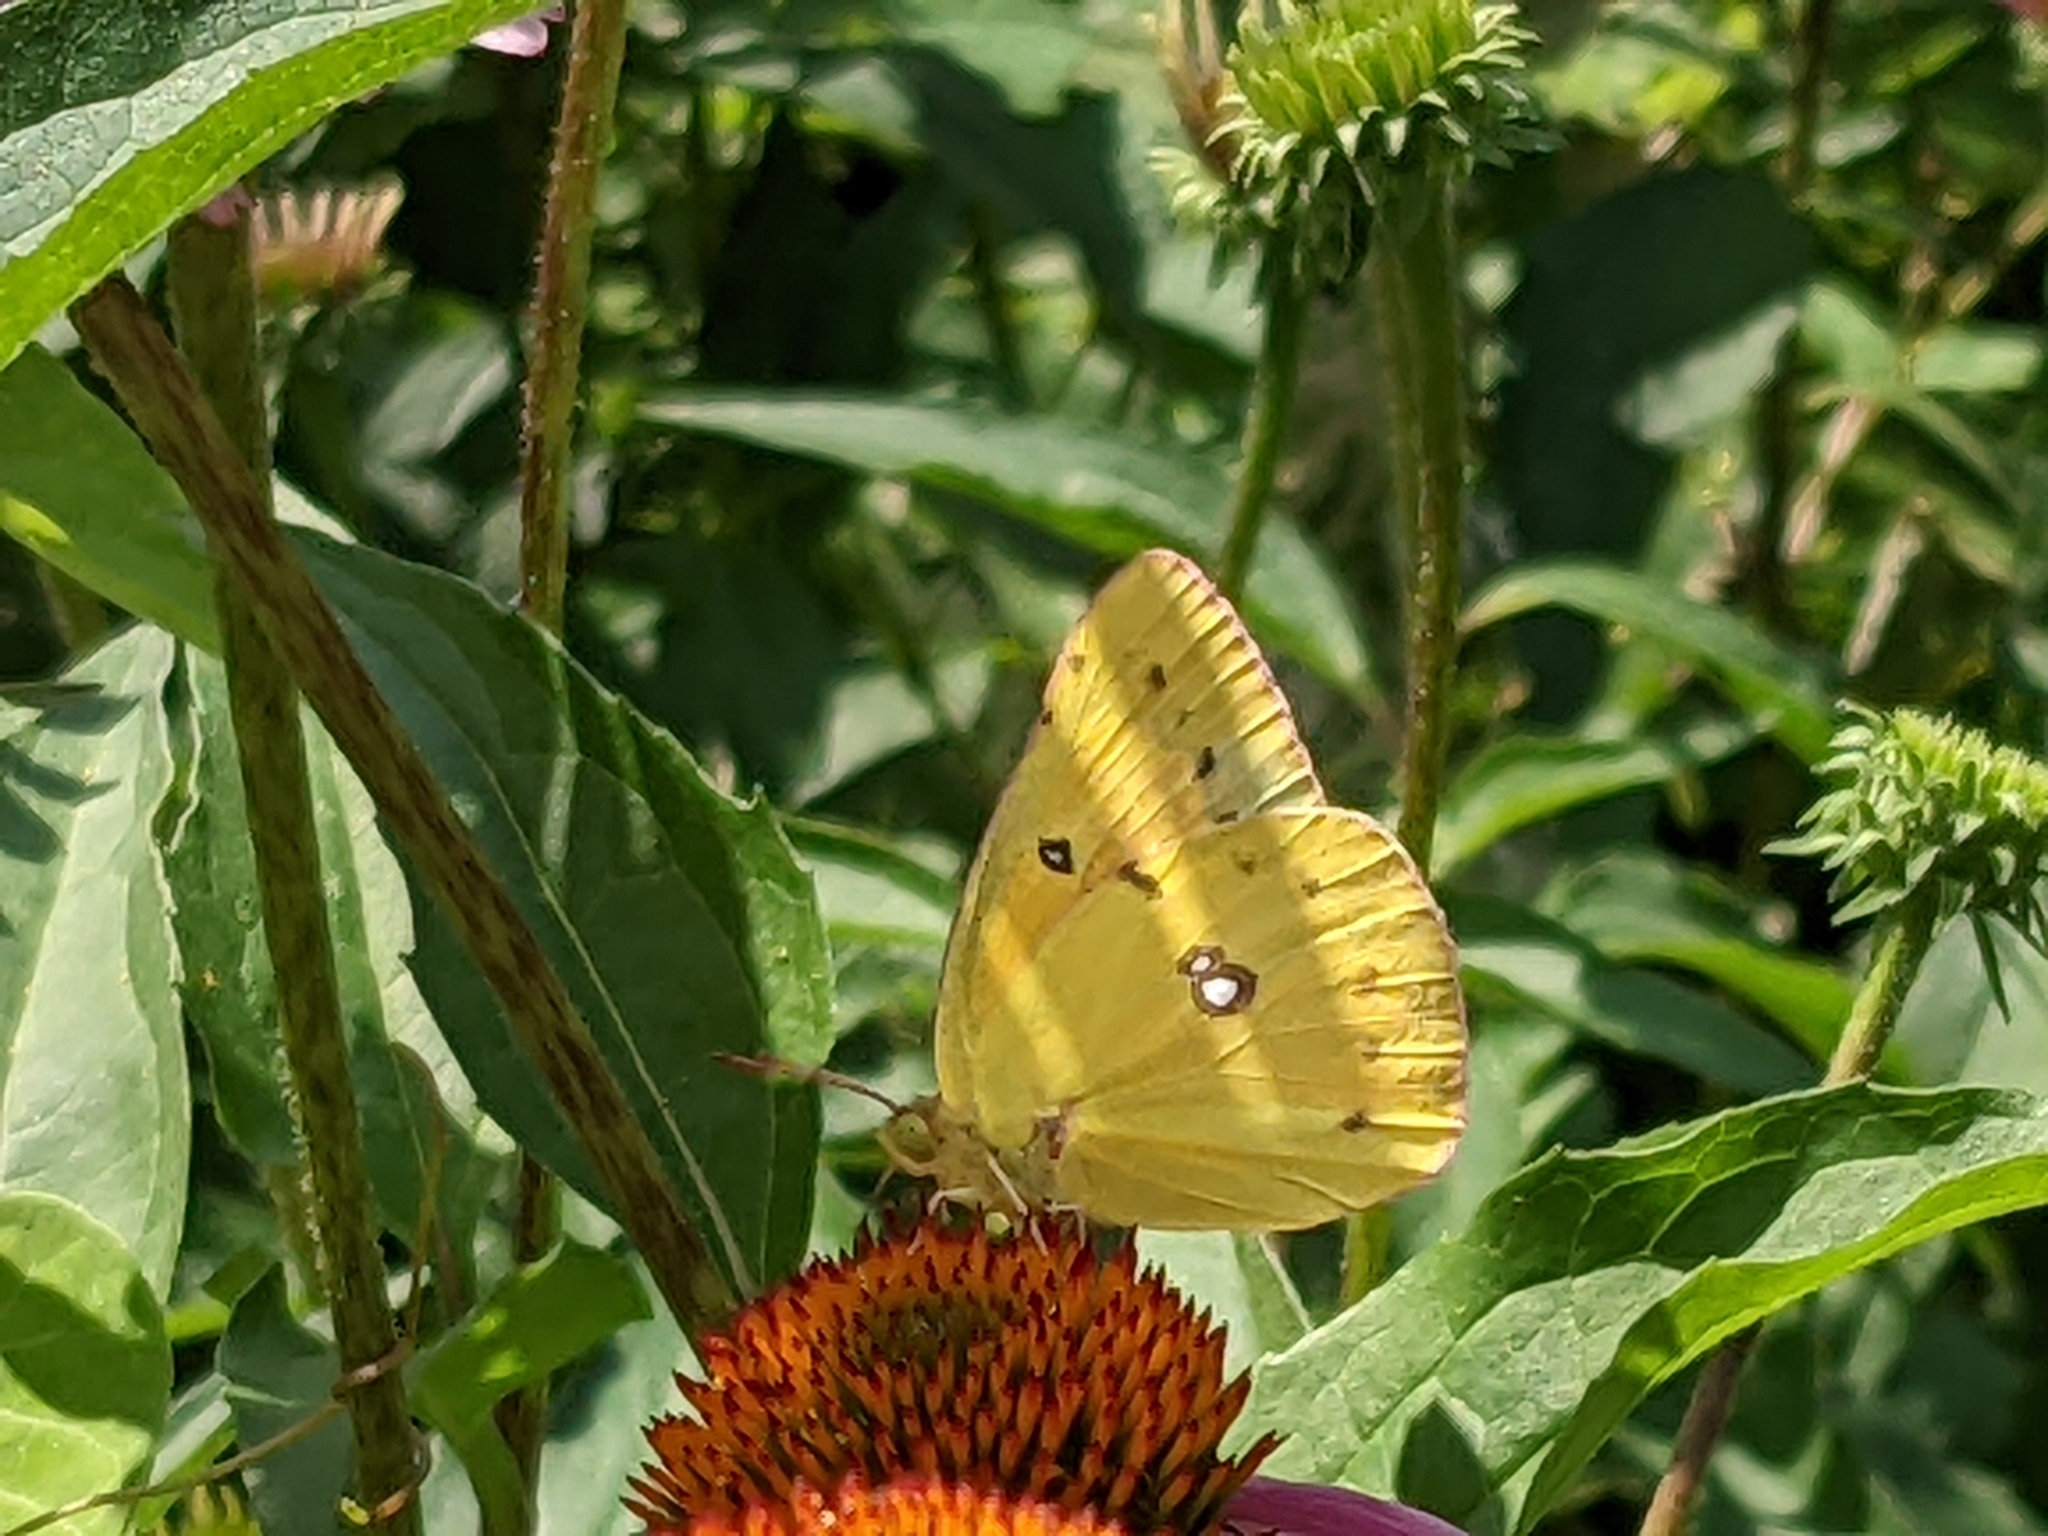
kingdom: Animalia
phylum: Arthropoda
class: Insecta
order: Lepidoptera
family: Pieridae
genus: Colias
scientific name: Colias eurytheme
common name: Alfalfa butterfly
